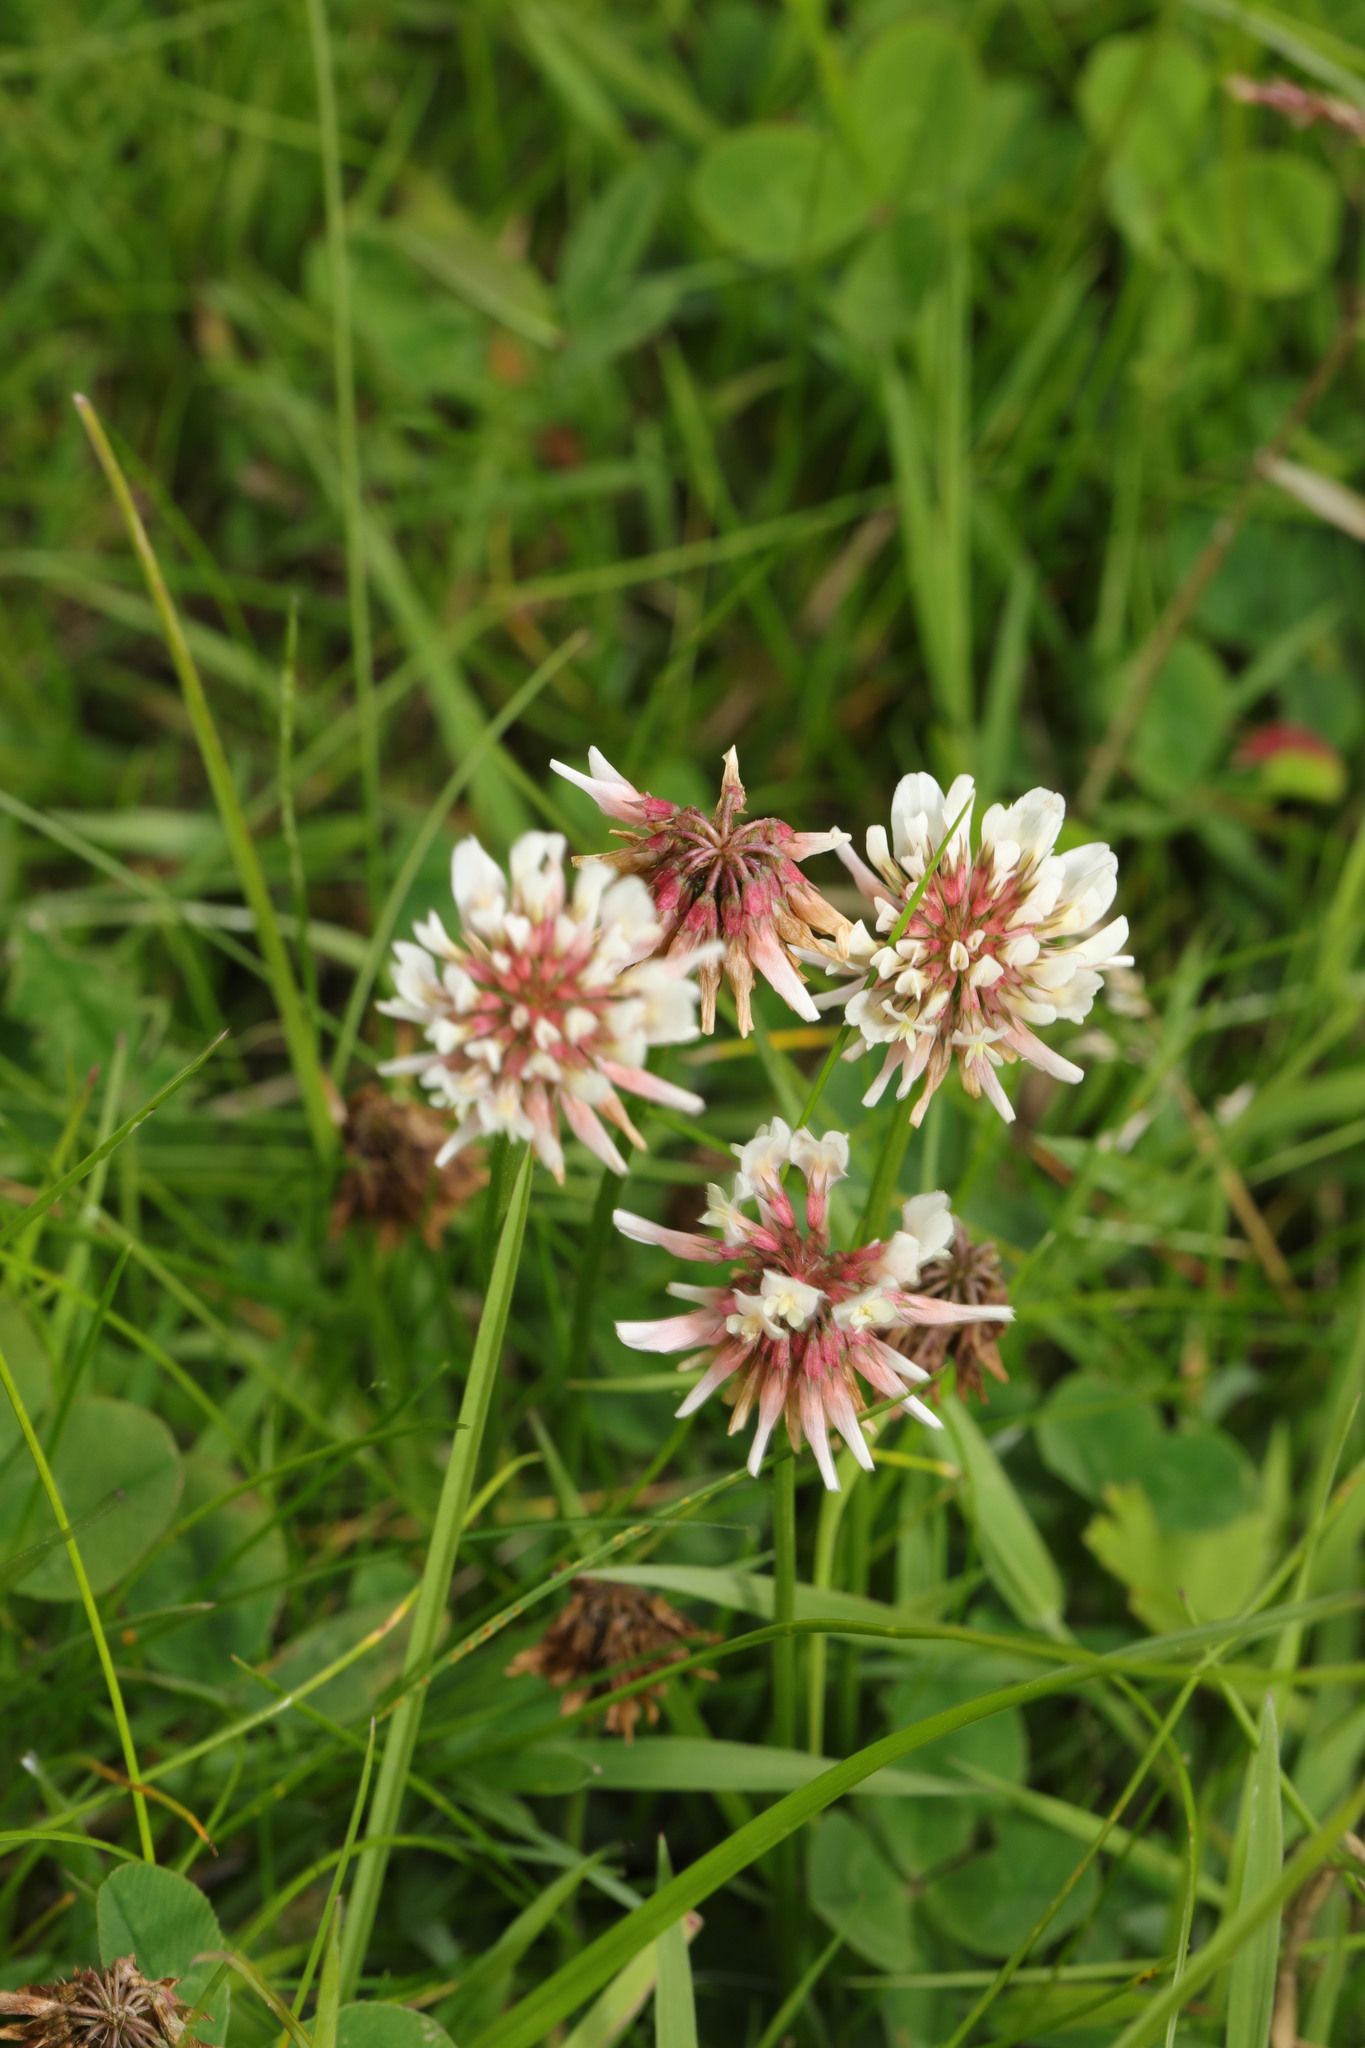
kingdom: Plantae
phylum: Tracheophyta
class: Magnoliopsida
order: Fabales
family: Fabaceae
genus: Trifolium
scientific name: Trifolium repens
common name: White clover
